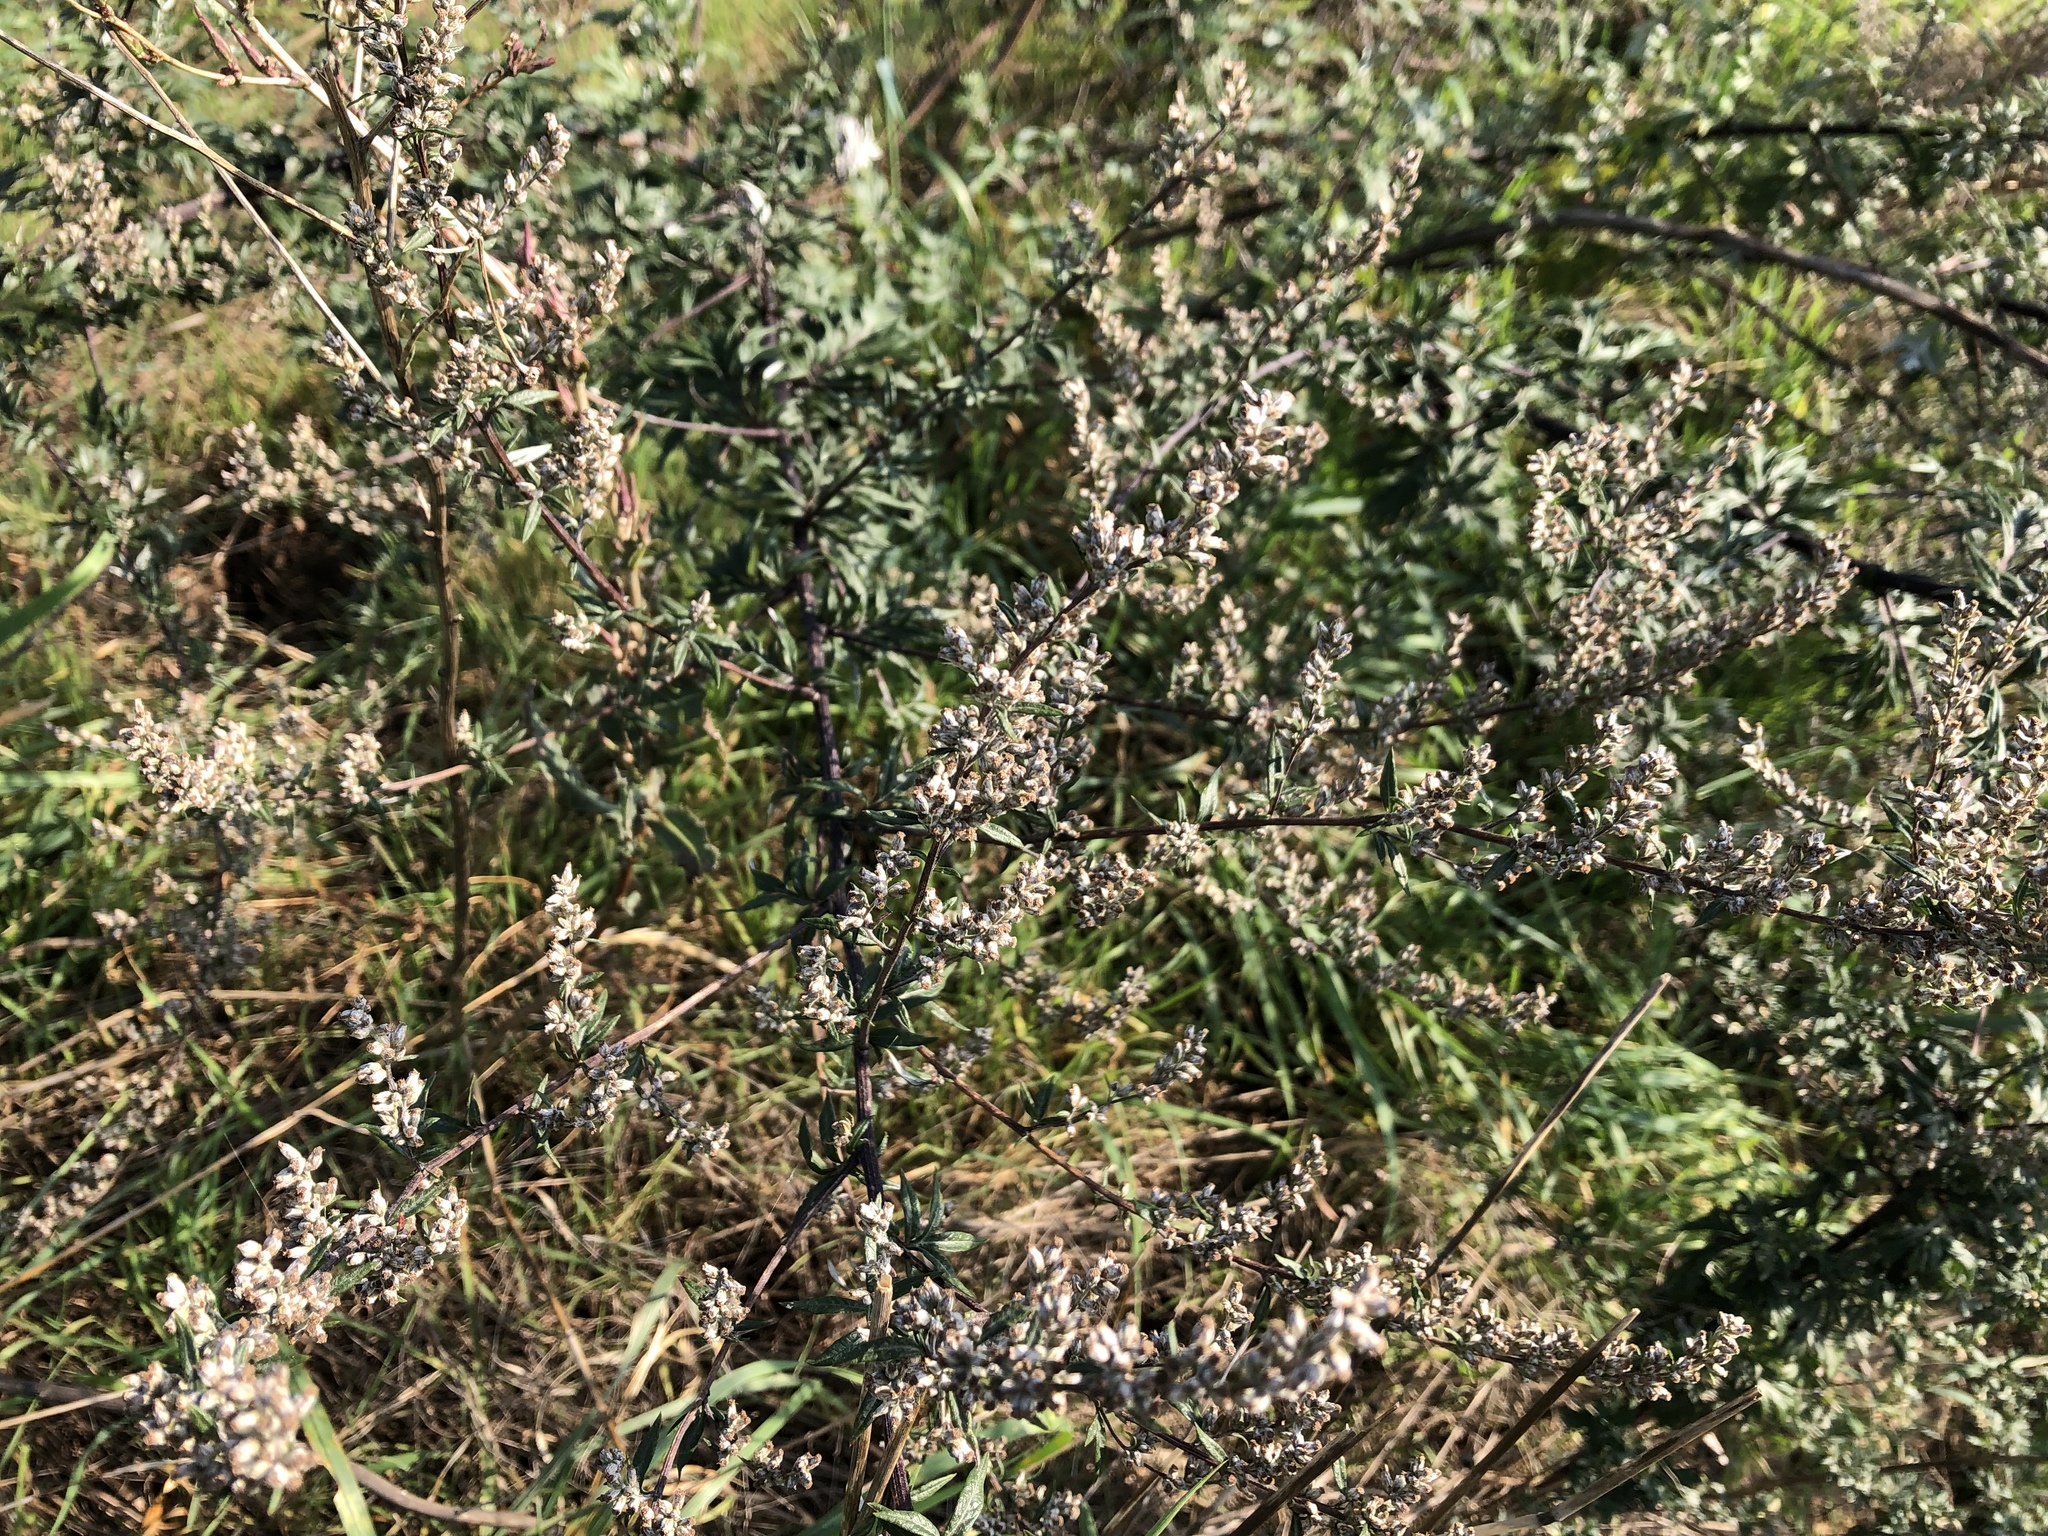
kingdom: Plantae
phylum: Tracheophyta
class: Magnoliopsida
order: Asterales
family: Asteraceae
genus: Artemisia
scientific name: Artemisia vulgaris
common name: Mugwort
